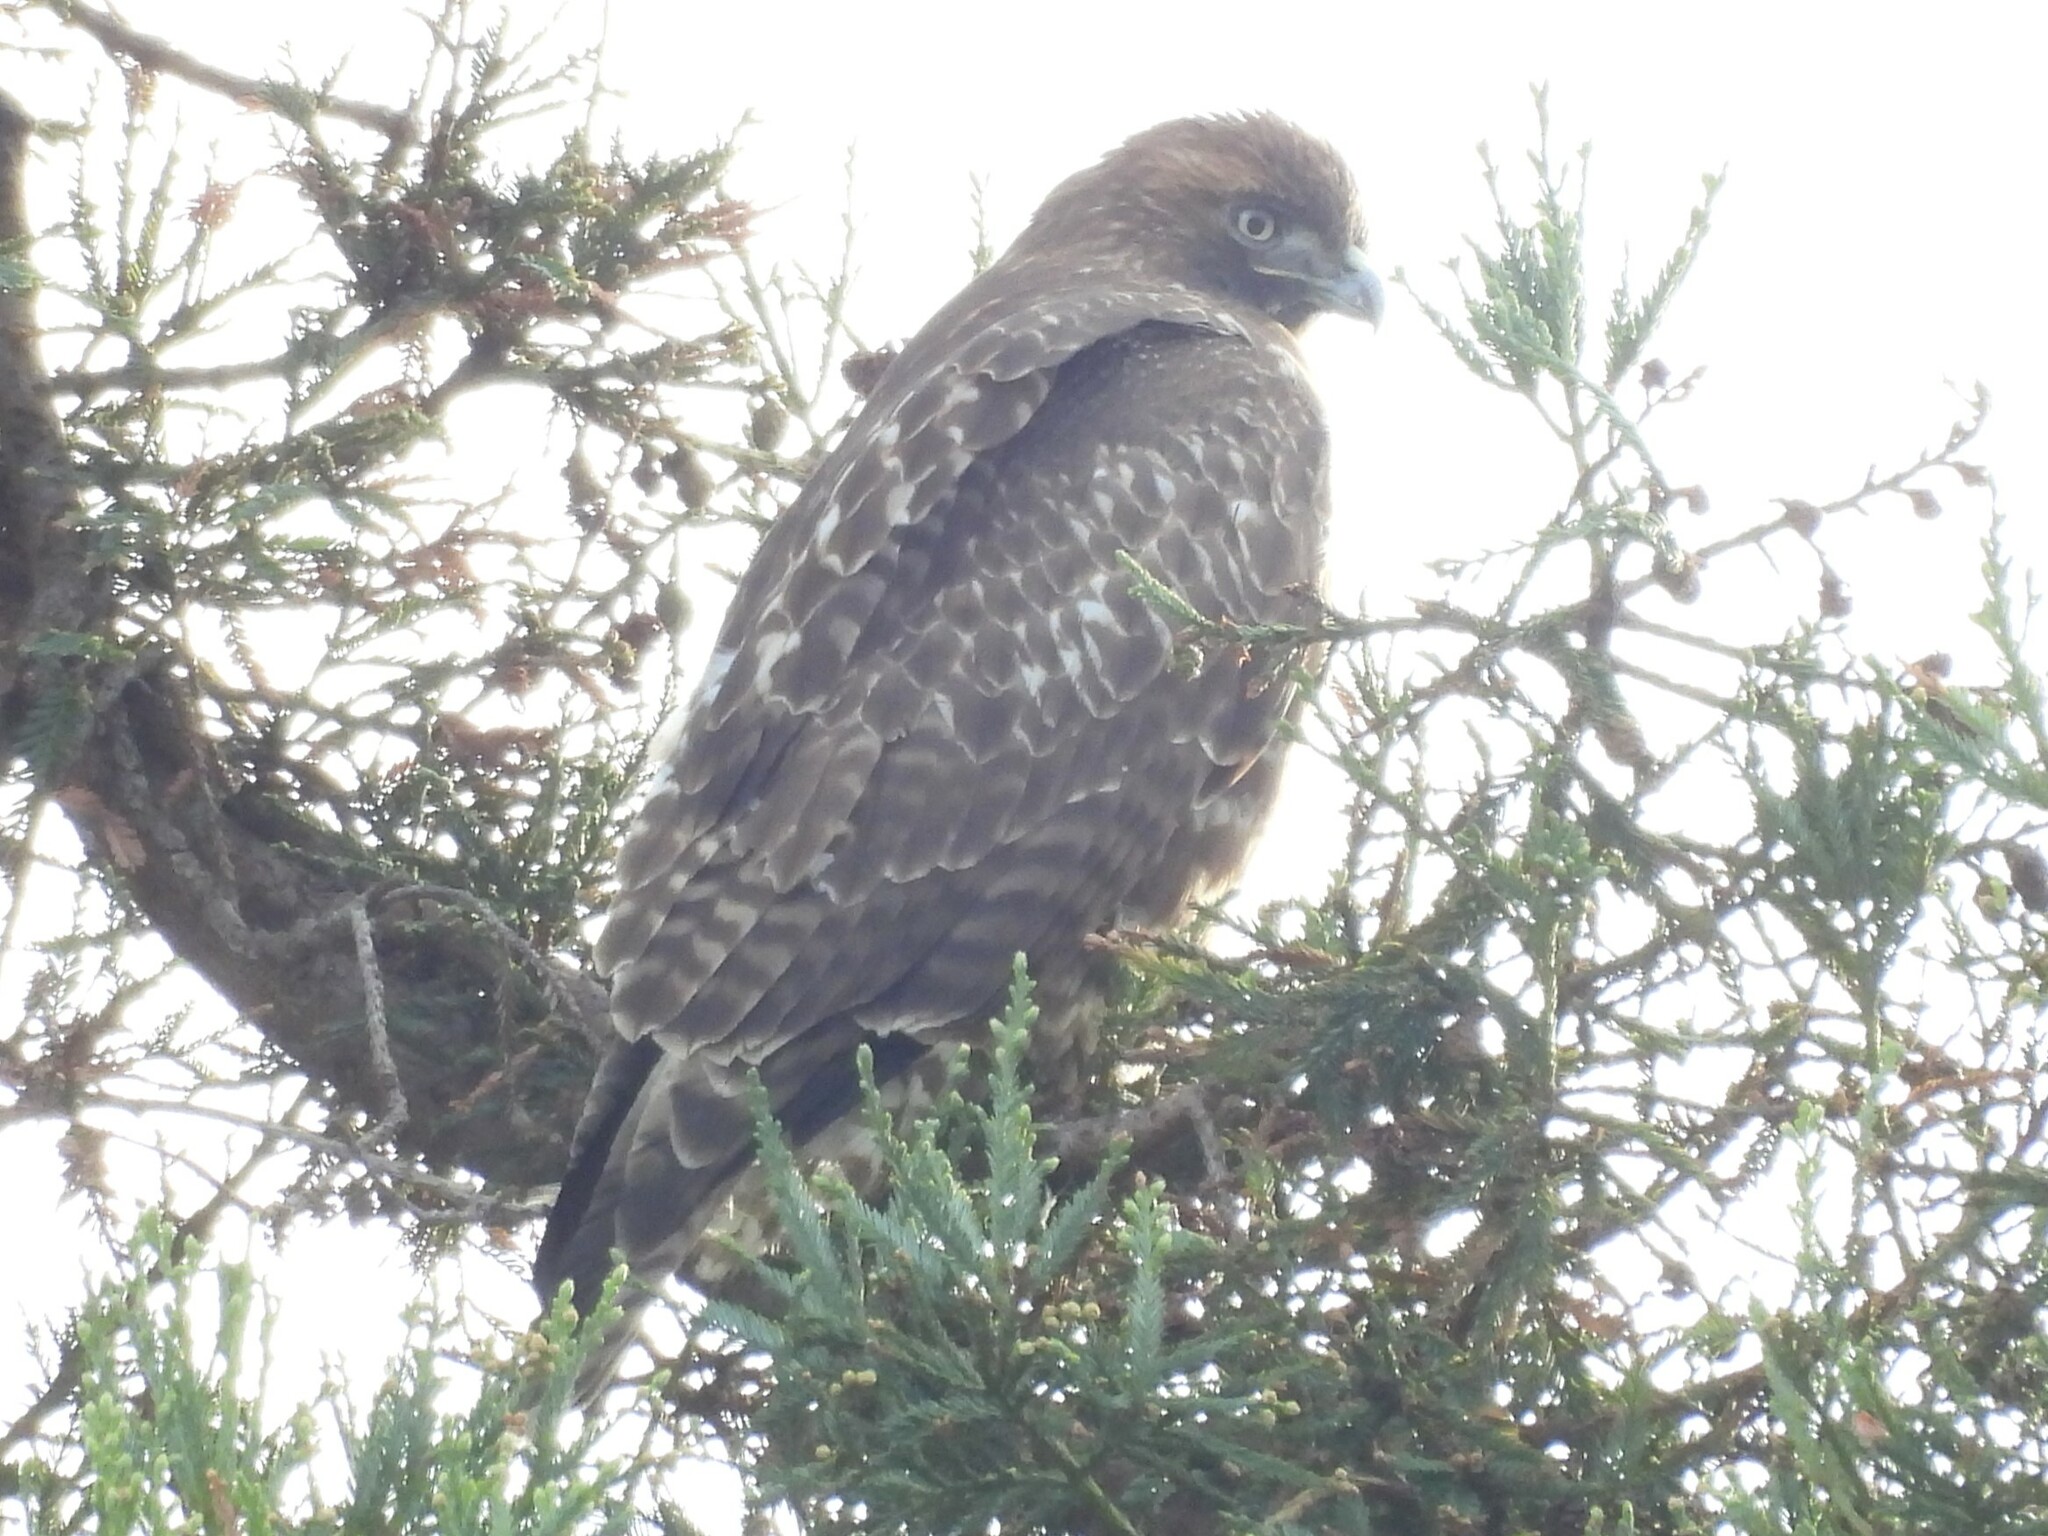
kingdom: Animalia
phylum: Chordata
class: Aves
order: Accipitriformes
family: Accipitridae
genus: Buteo
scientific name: Buteo jamaicensis
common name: Red-tailed hawk
